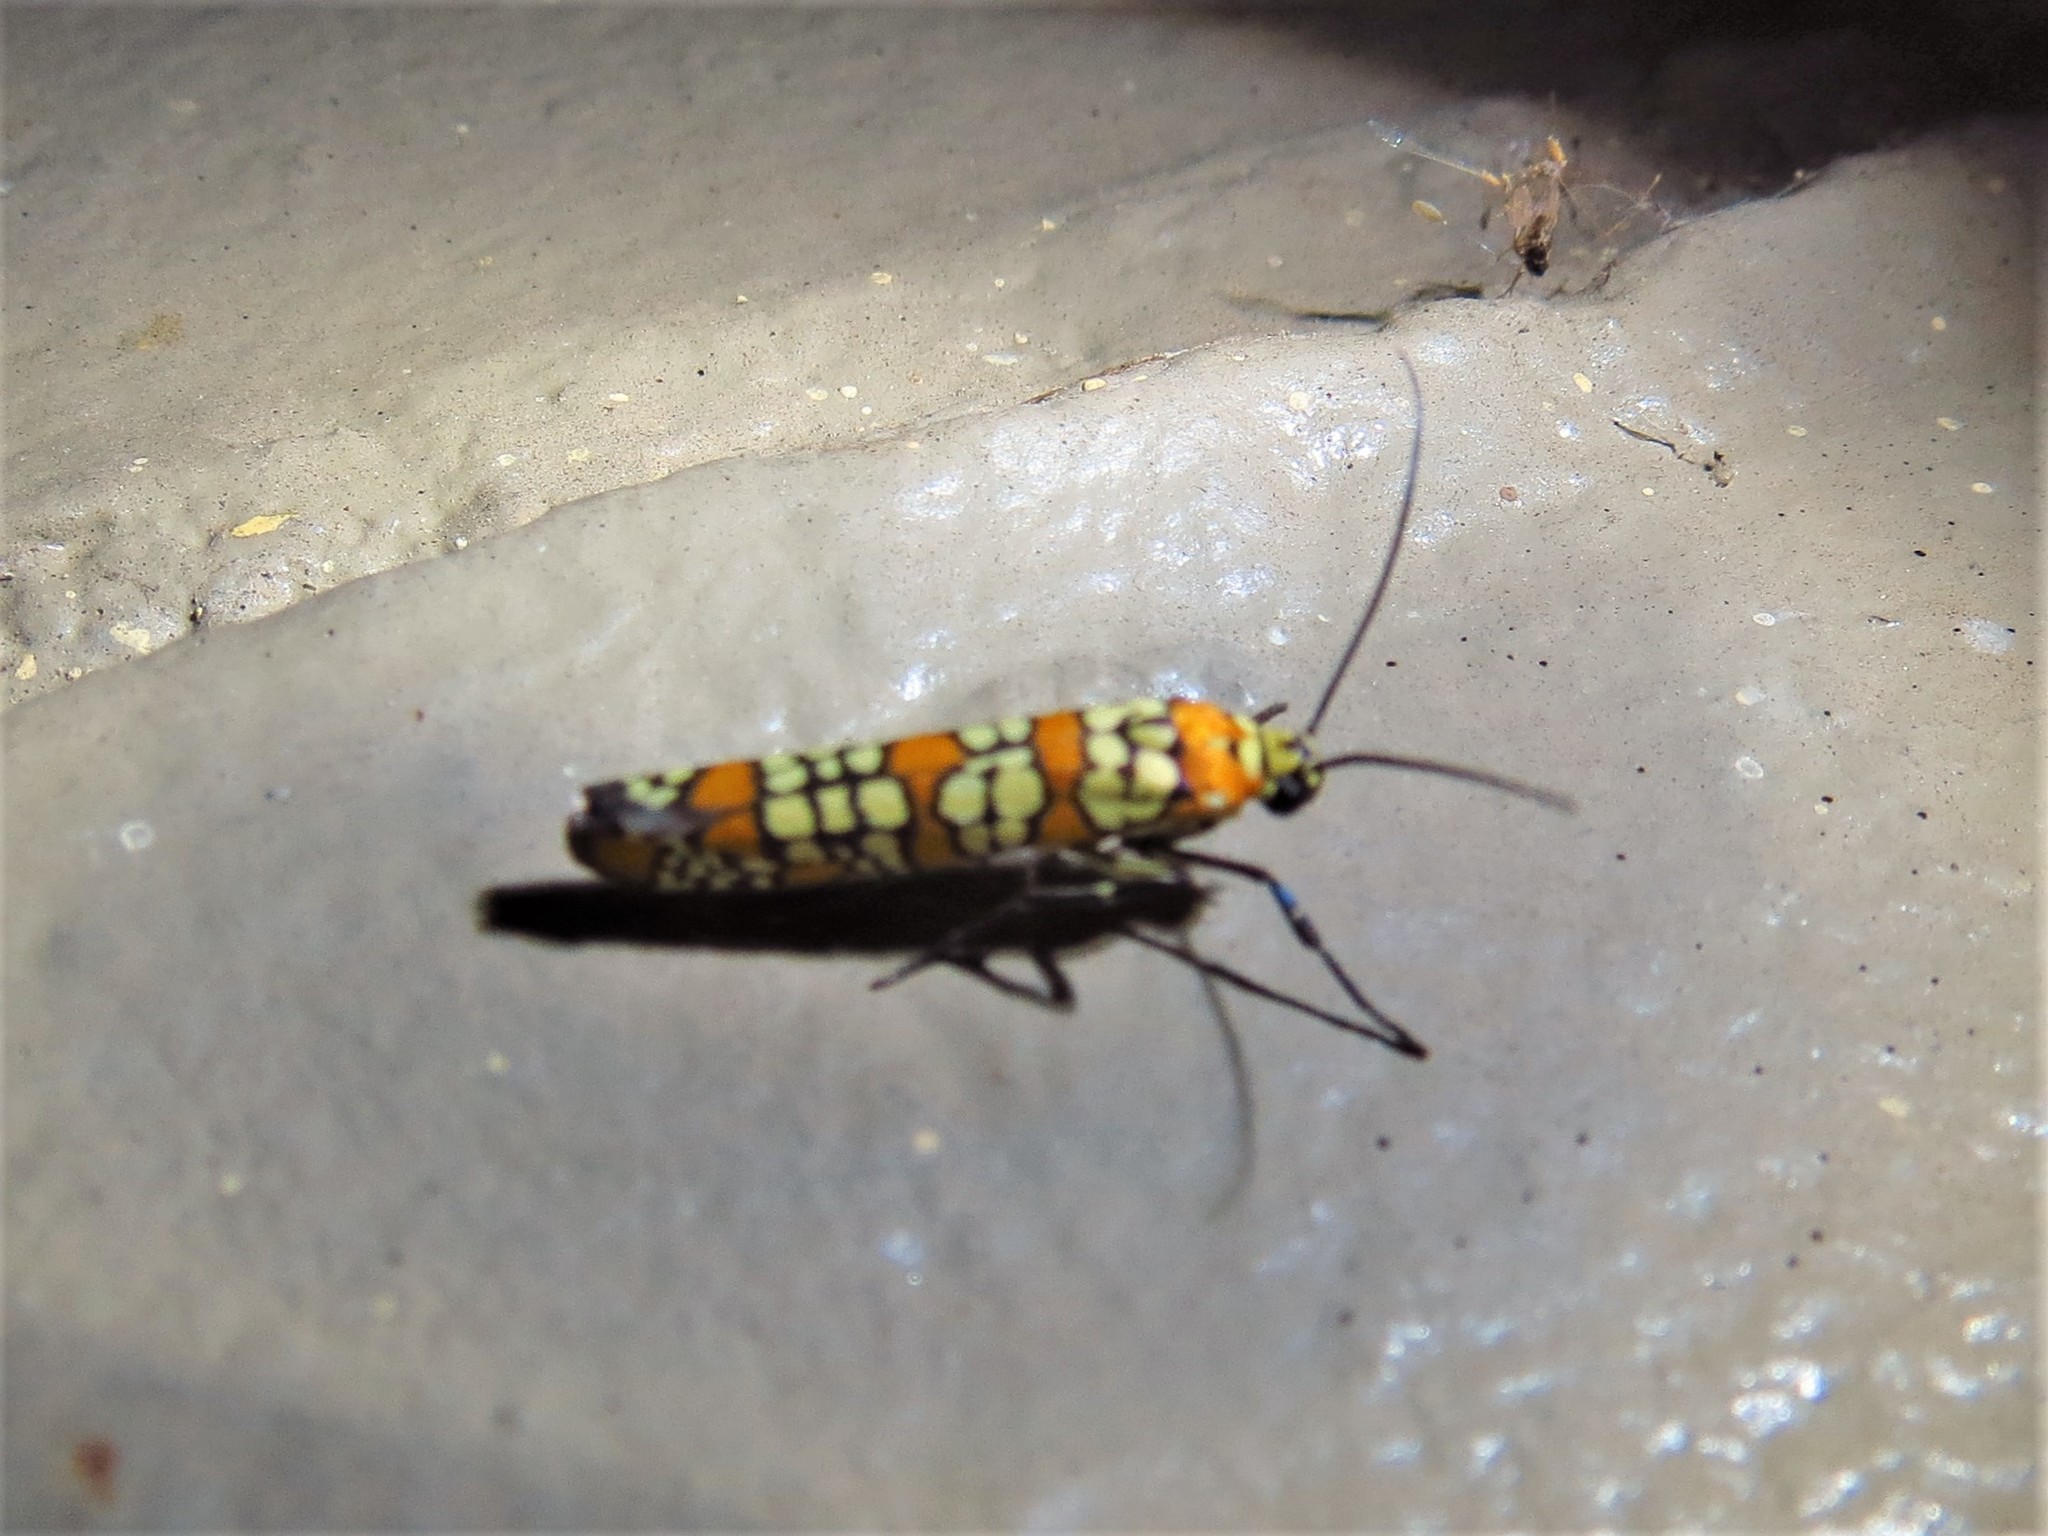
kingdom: Animalia
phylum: Arthropoda
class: Insecta
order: Lepidoptera
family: Attevidae
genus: Atteva
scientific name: Atteva punctella
